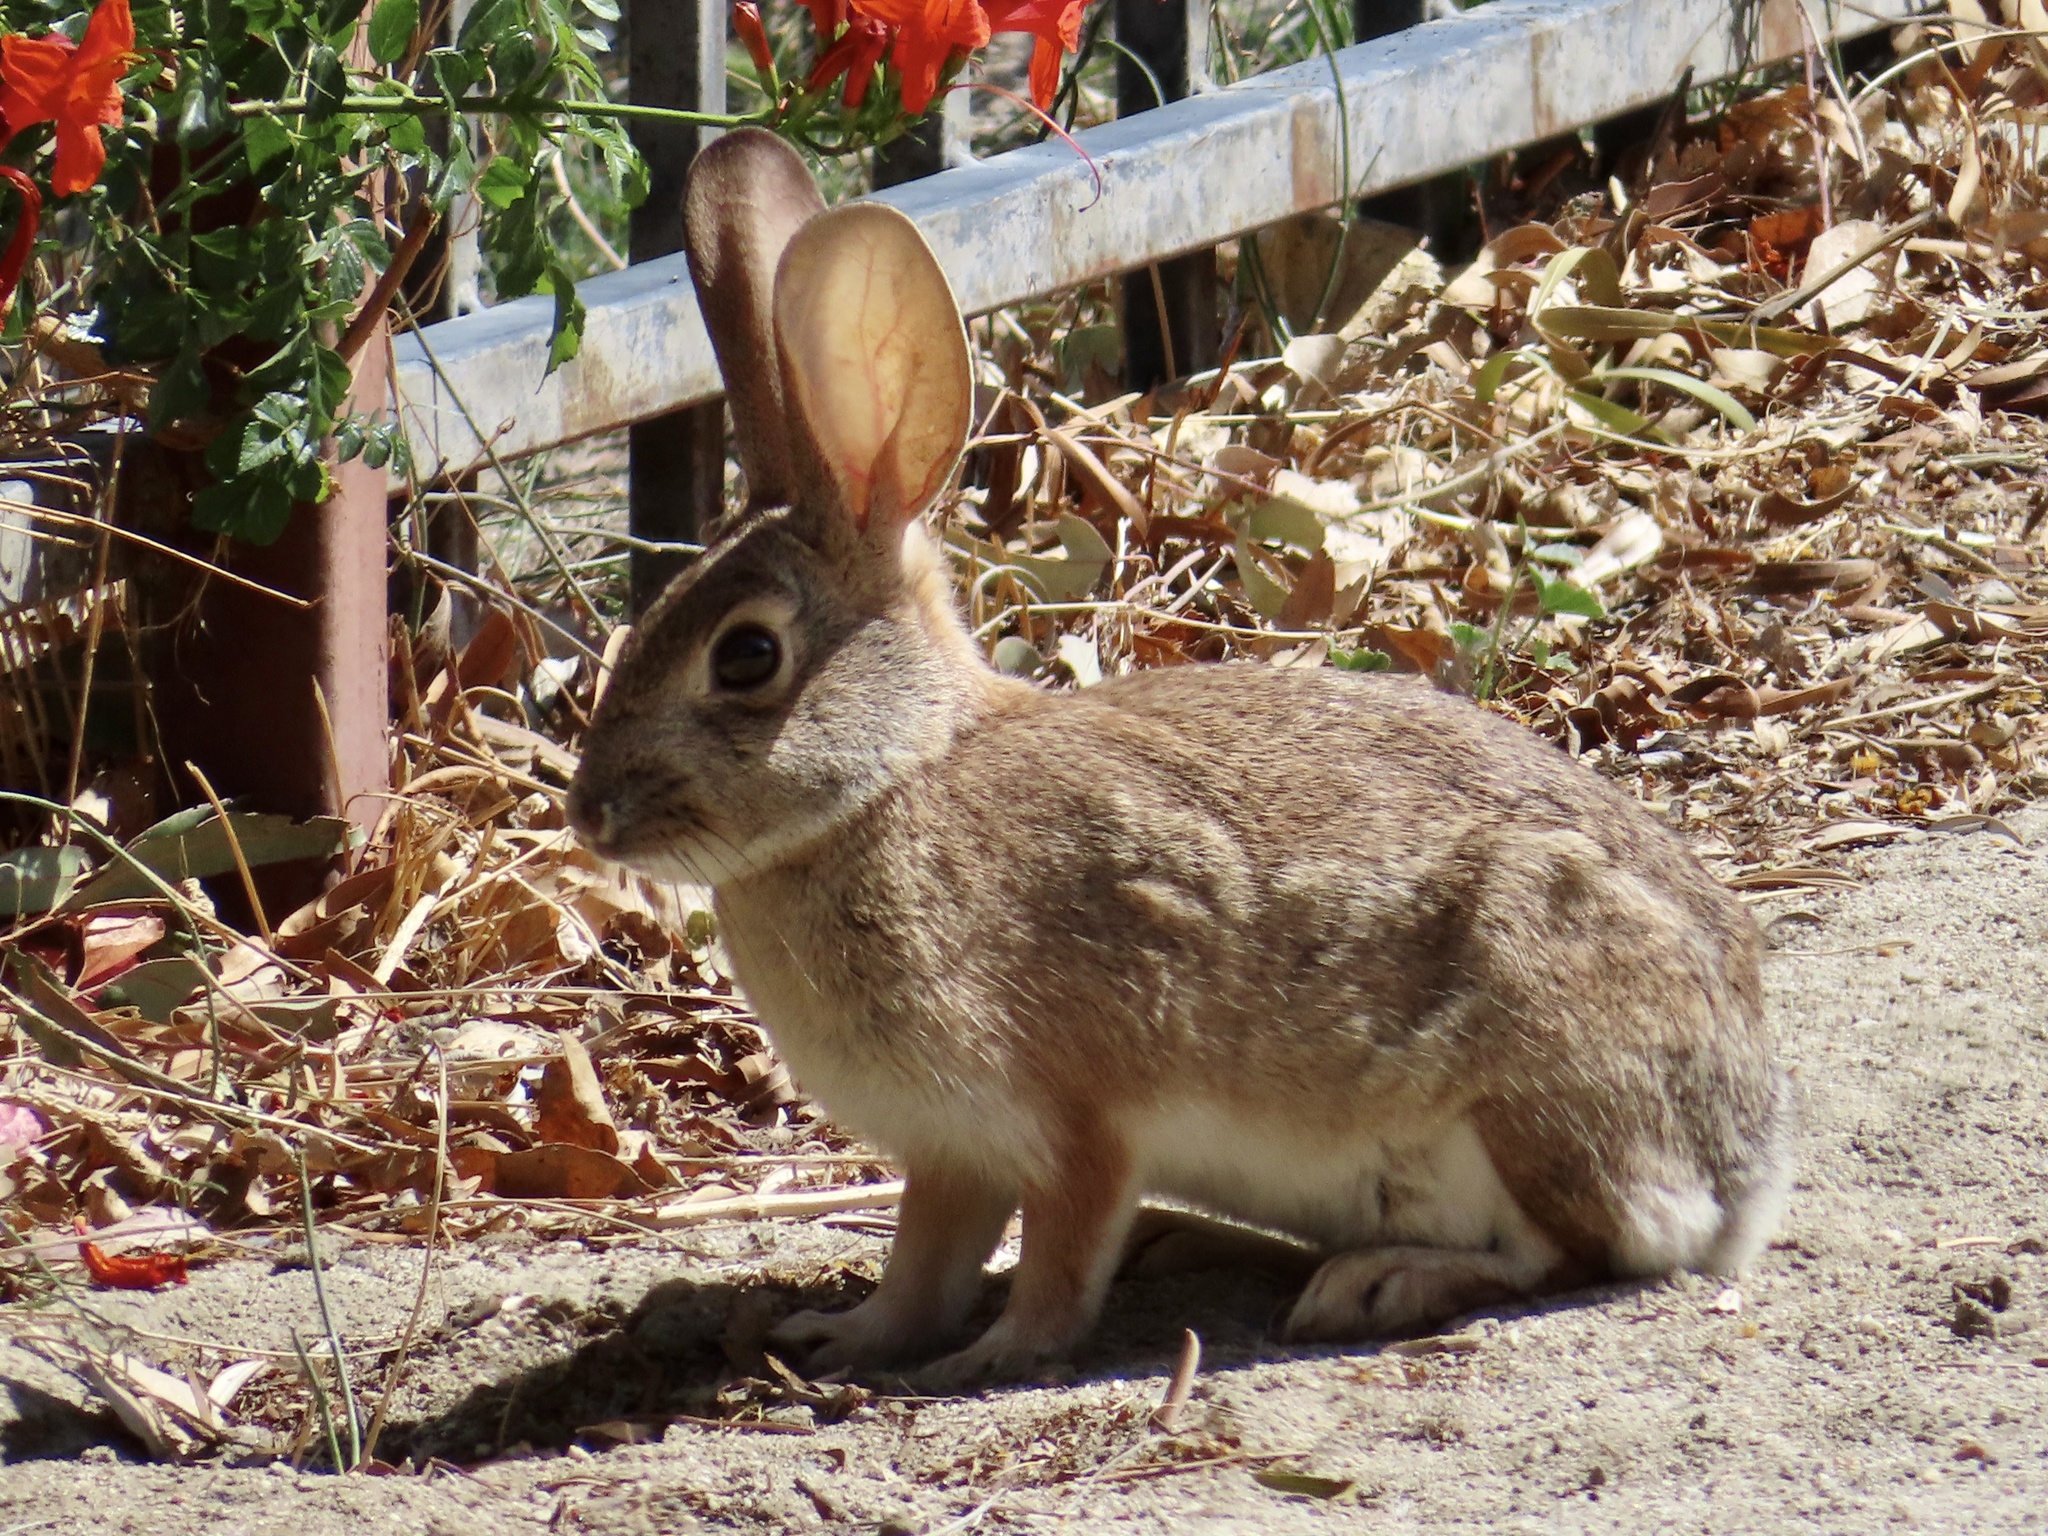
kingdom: Animalia
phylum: Chordata
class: Mammalia
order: Lagomorpha
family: Leporidae
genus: Sylvilagus
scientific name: Sylvilagus audubonii
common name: Desert cottontail
